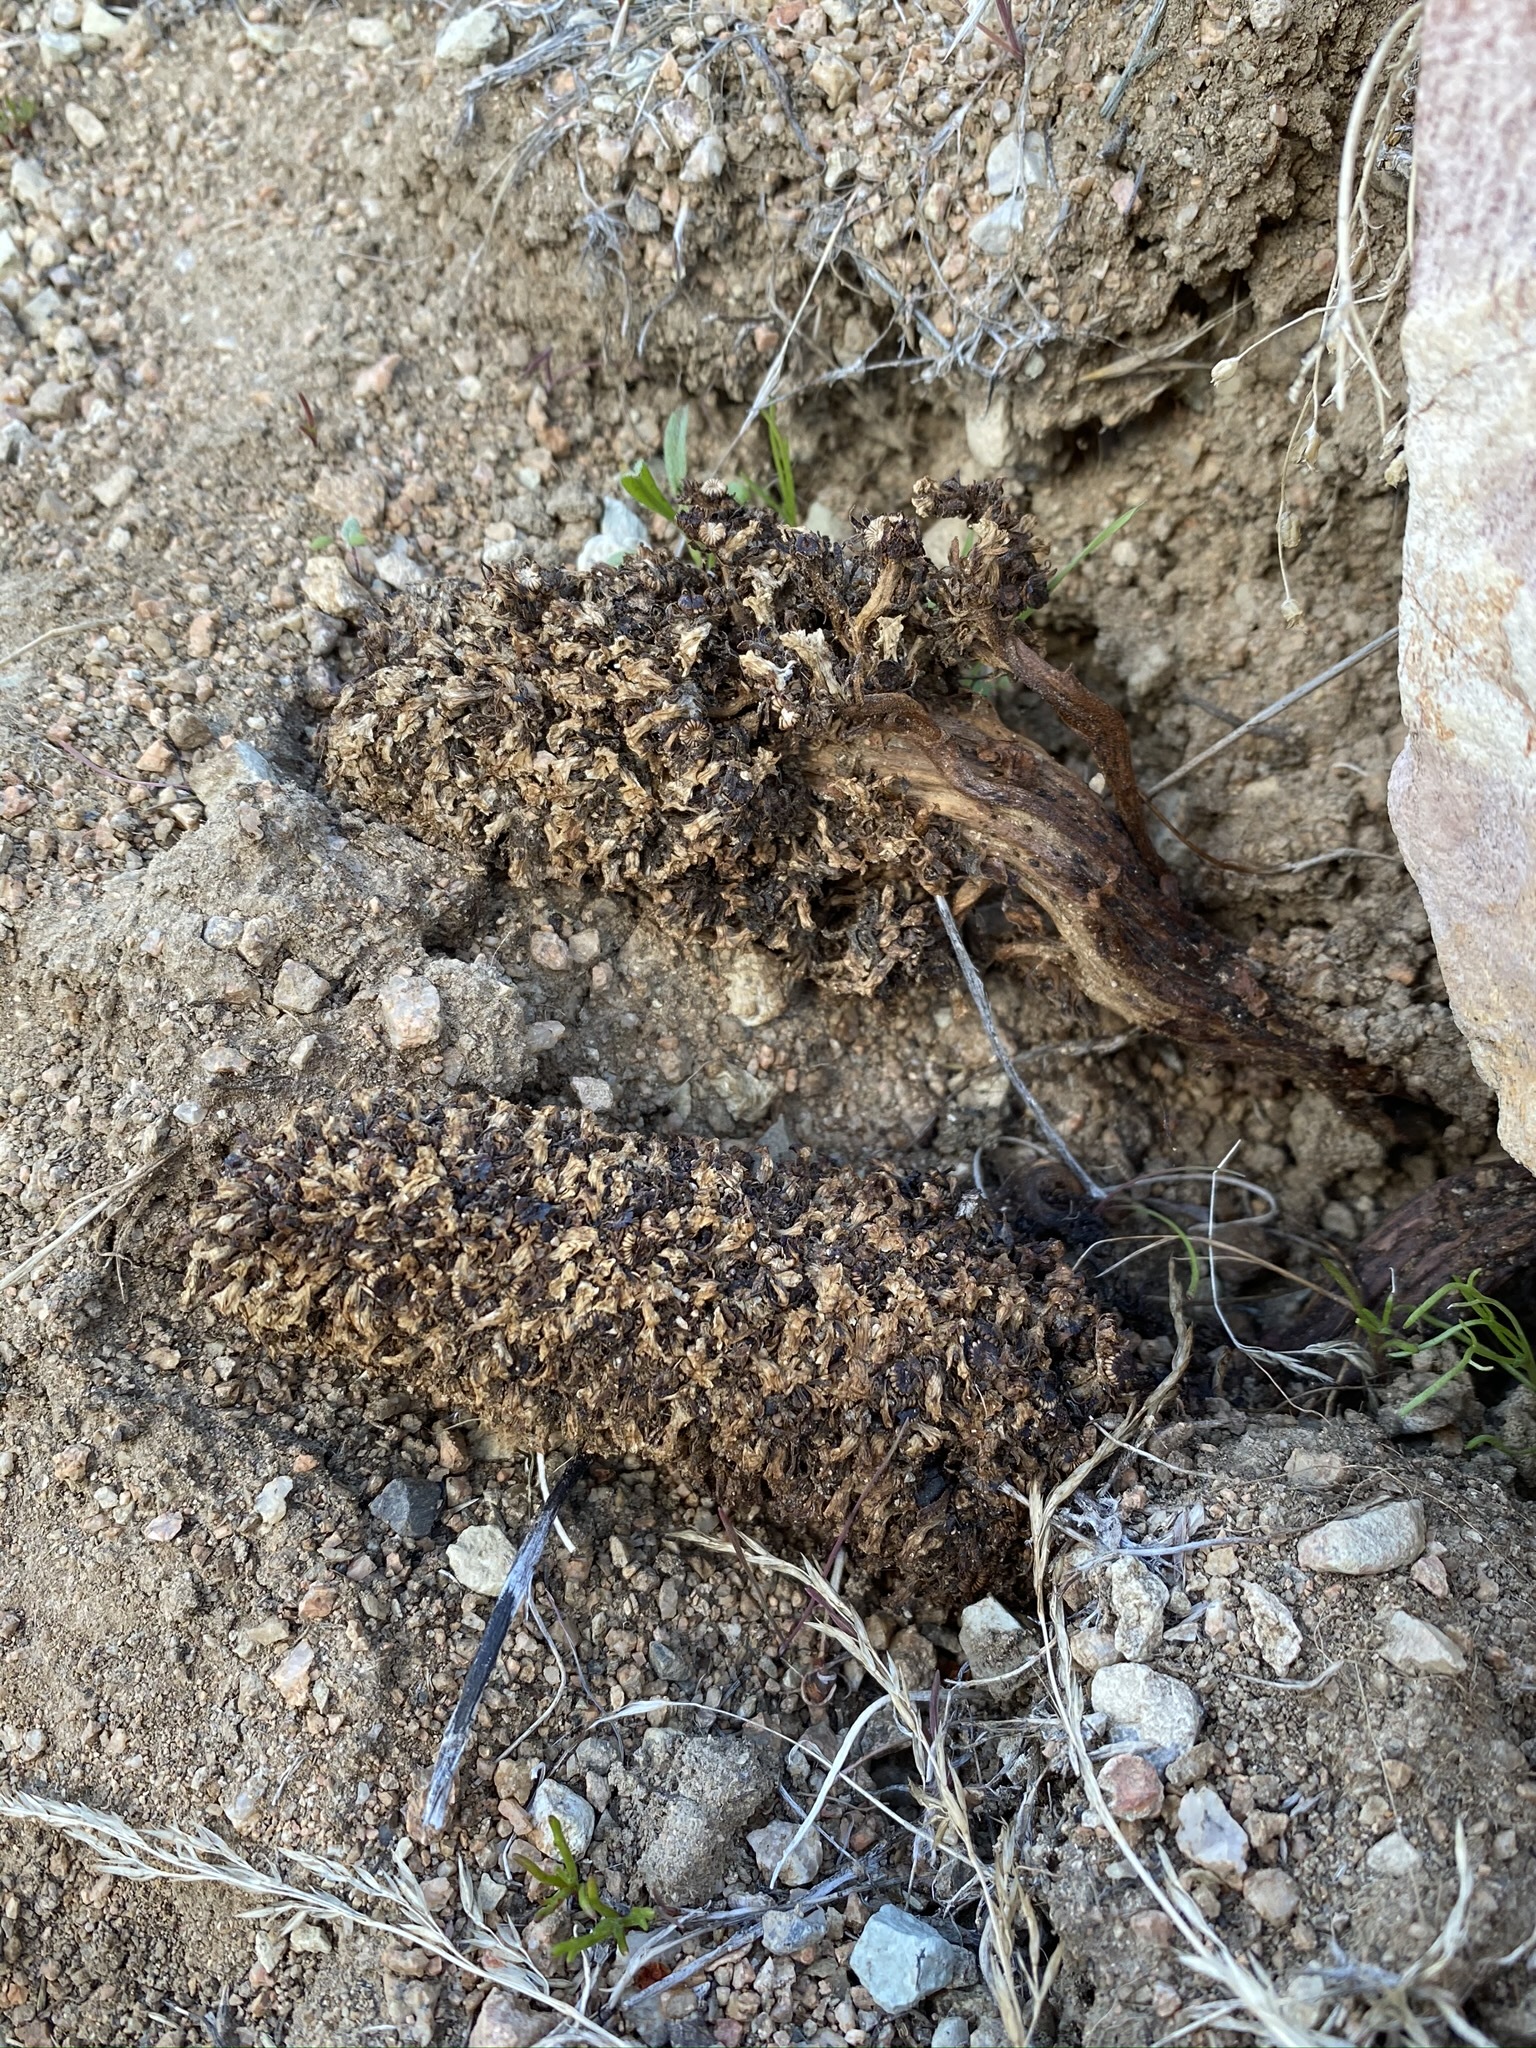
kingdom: Plantae
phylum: Tracheophyta
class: Magnoliopsida
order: Boraginales
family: Lennoaceae
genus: Pholisma
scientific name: Pholisma arenarium
